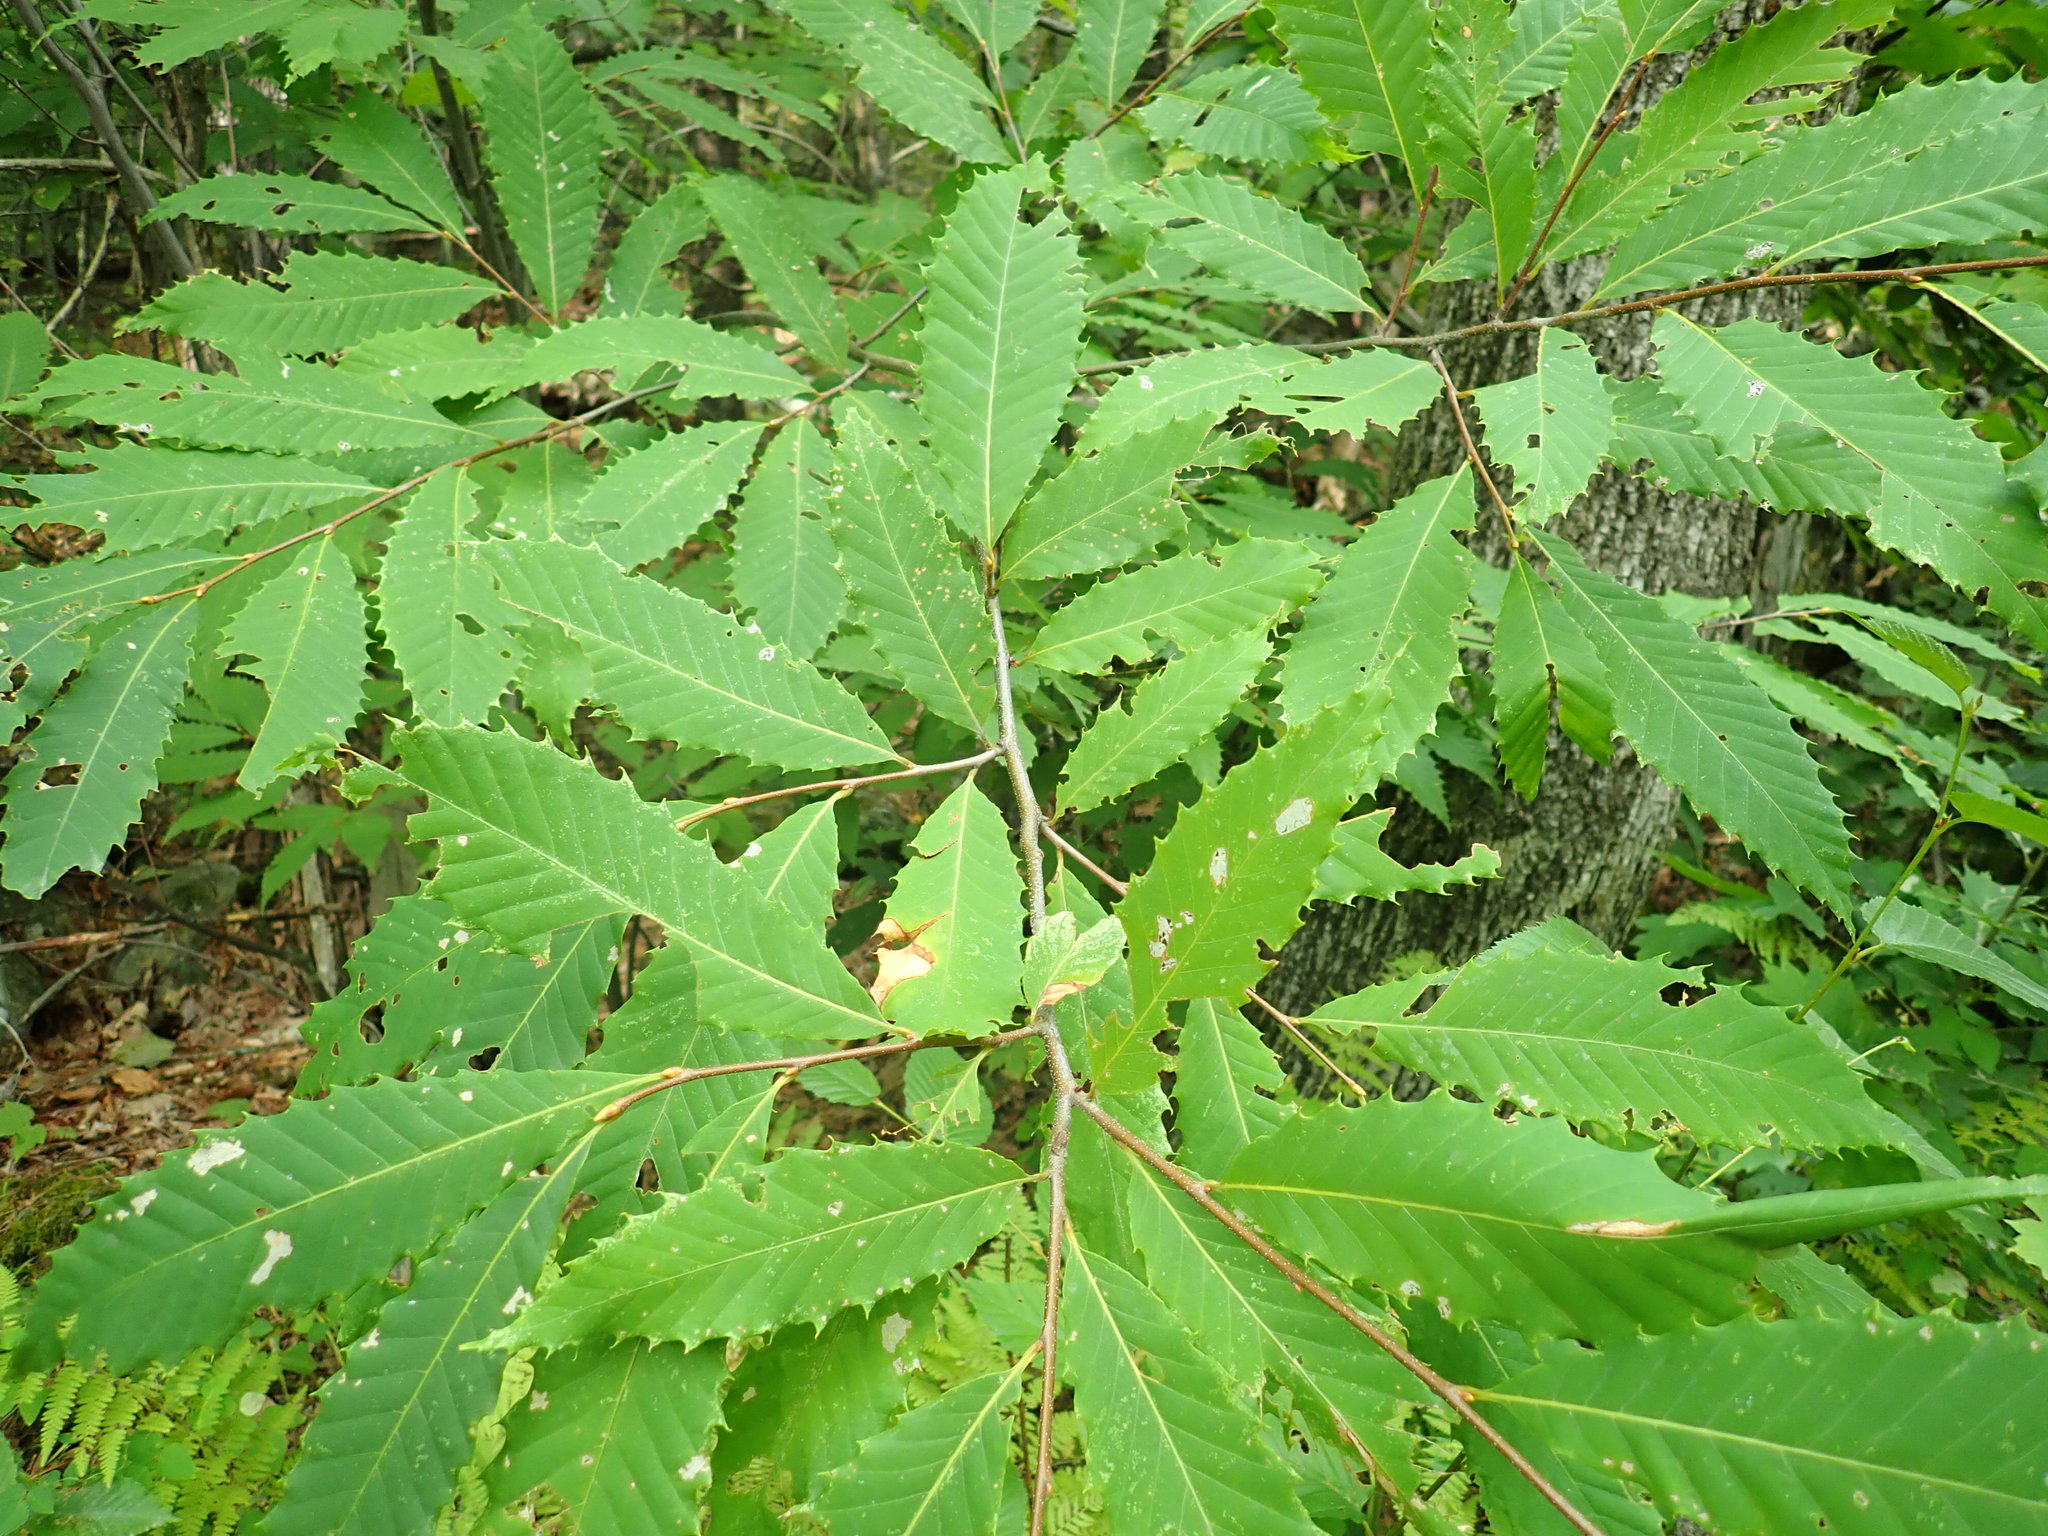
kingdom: Plantae
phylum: Tracheophyta
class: Magnoliopsida
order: Fagales
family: Fagaceae
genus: Castanea
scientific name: Castanea dentata
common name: American chestnut
